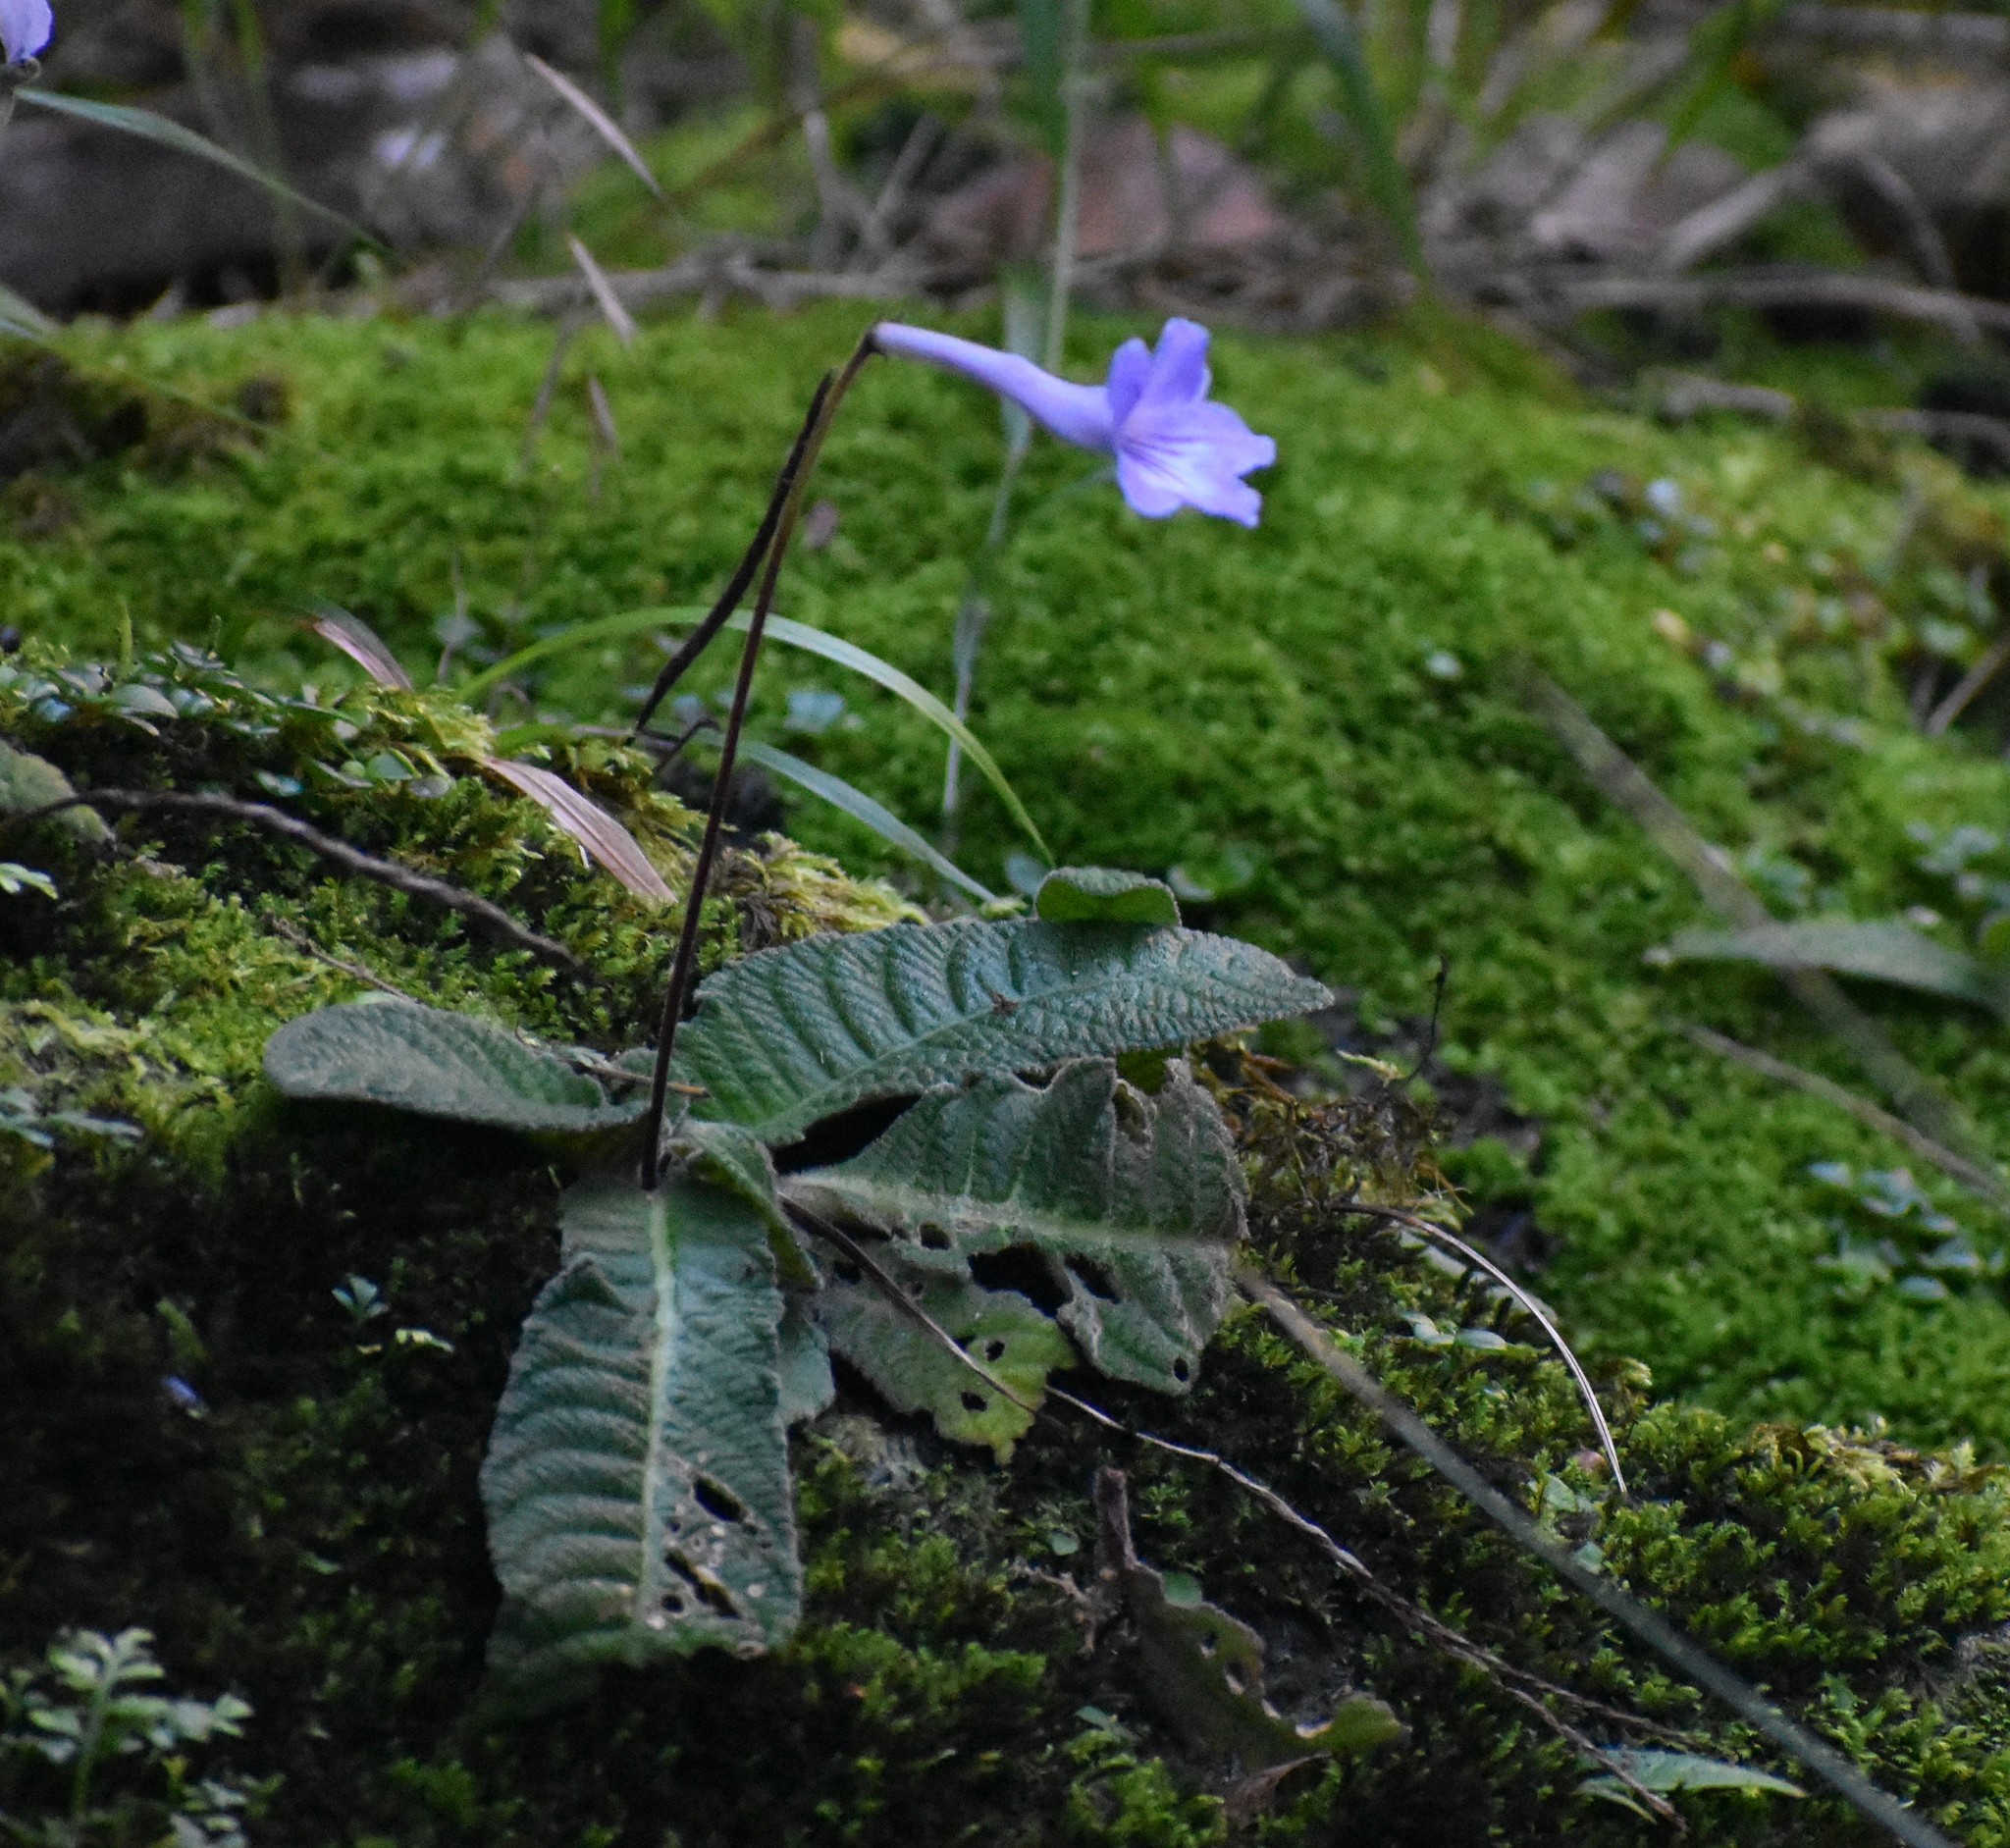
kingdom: Plantae
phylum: Tracheophyta
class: Magnoliopsida
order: Lamiales
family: Gesneriaceae
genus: Streptocarpus
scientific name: Streptocarpus rexii
